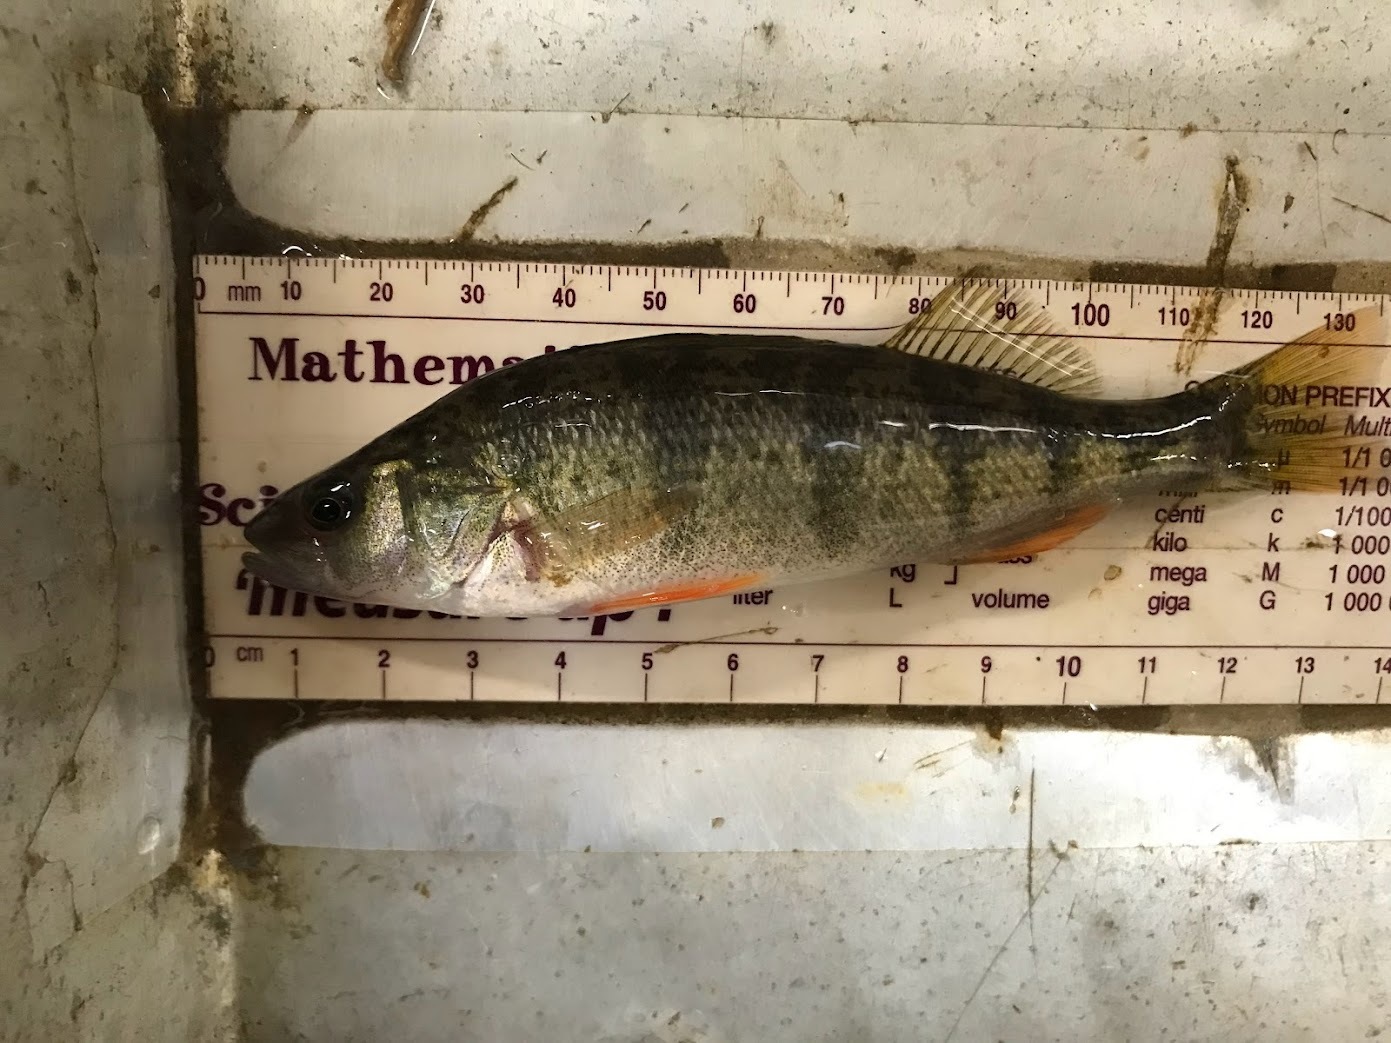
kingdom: Animalia
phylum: Chordata
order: Perciformes
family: Percidae
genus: Perca
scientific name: Perca flavescens
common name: Yellow perch
